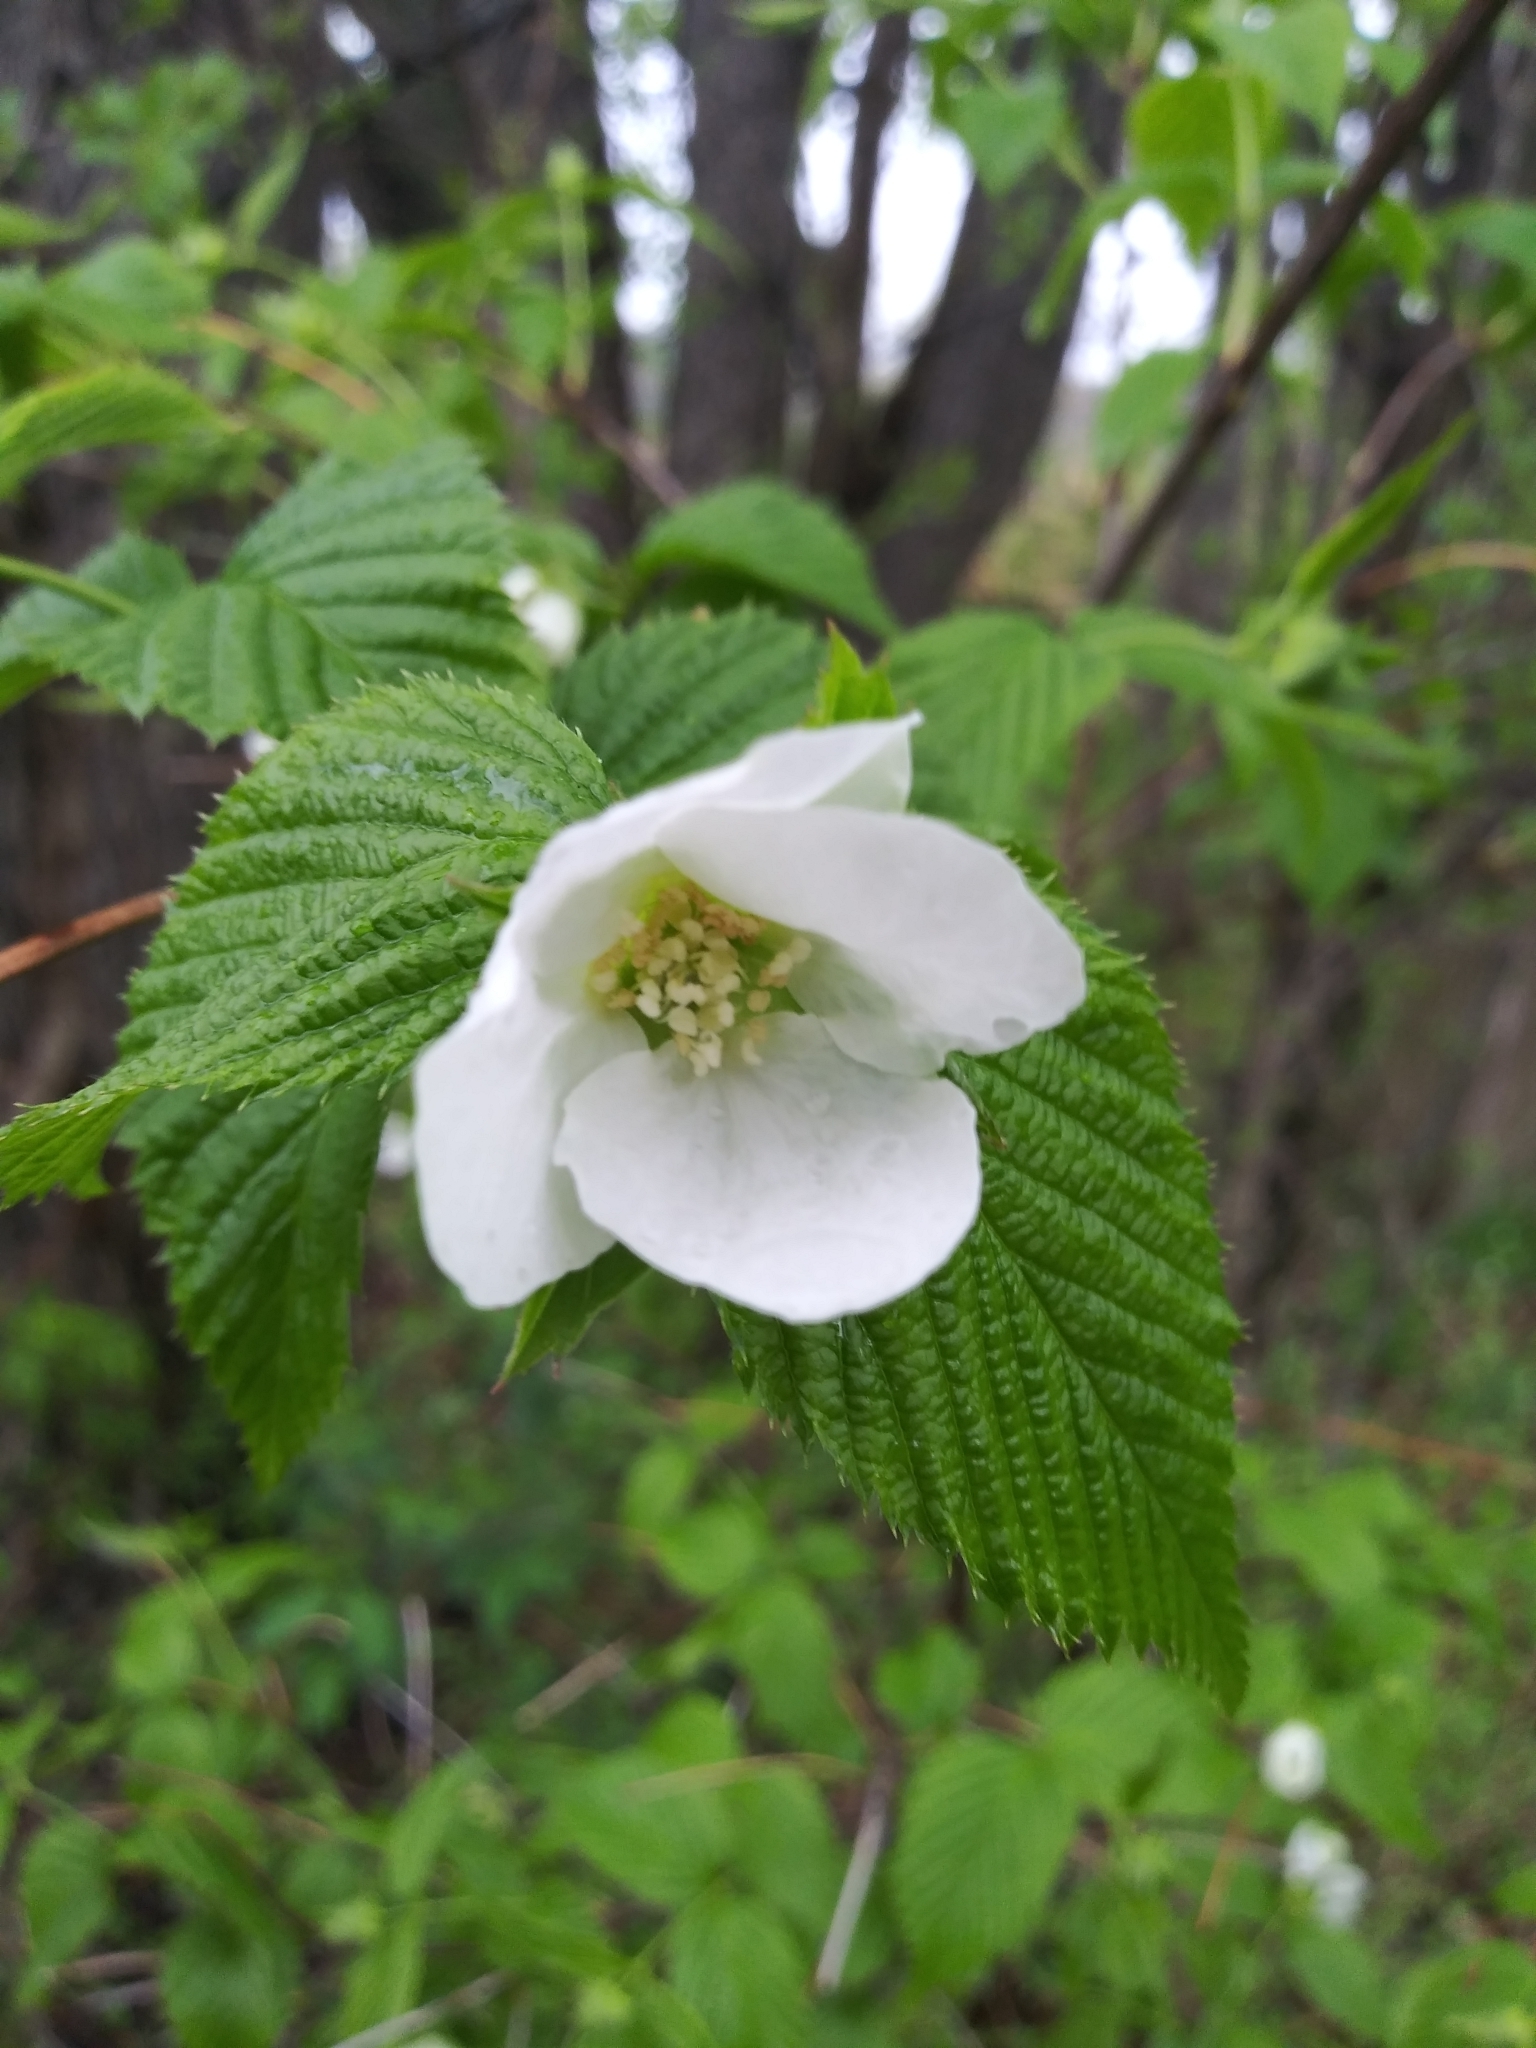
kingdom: Plantae
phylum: Tracheophyta
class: Magnoliopsida
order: Rosales
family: Rosaceae
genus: Rhodotypos
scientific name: Rhodotypos scandens
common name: Jetbead
